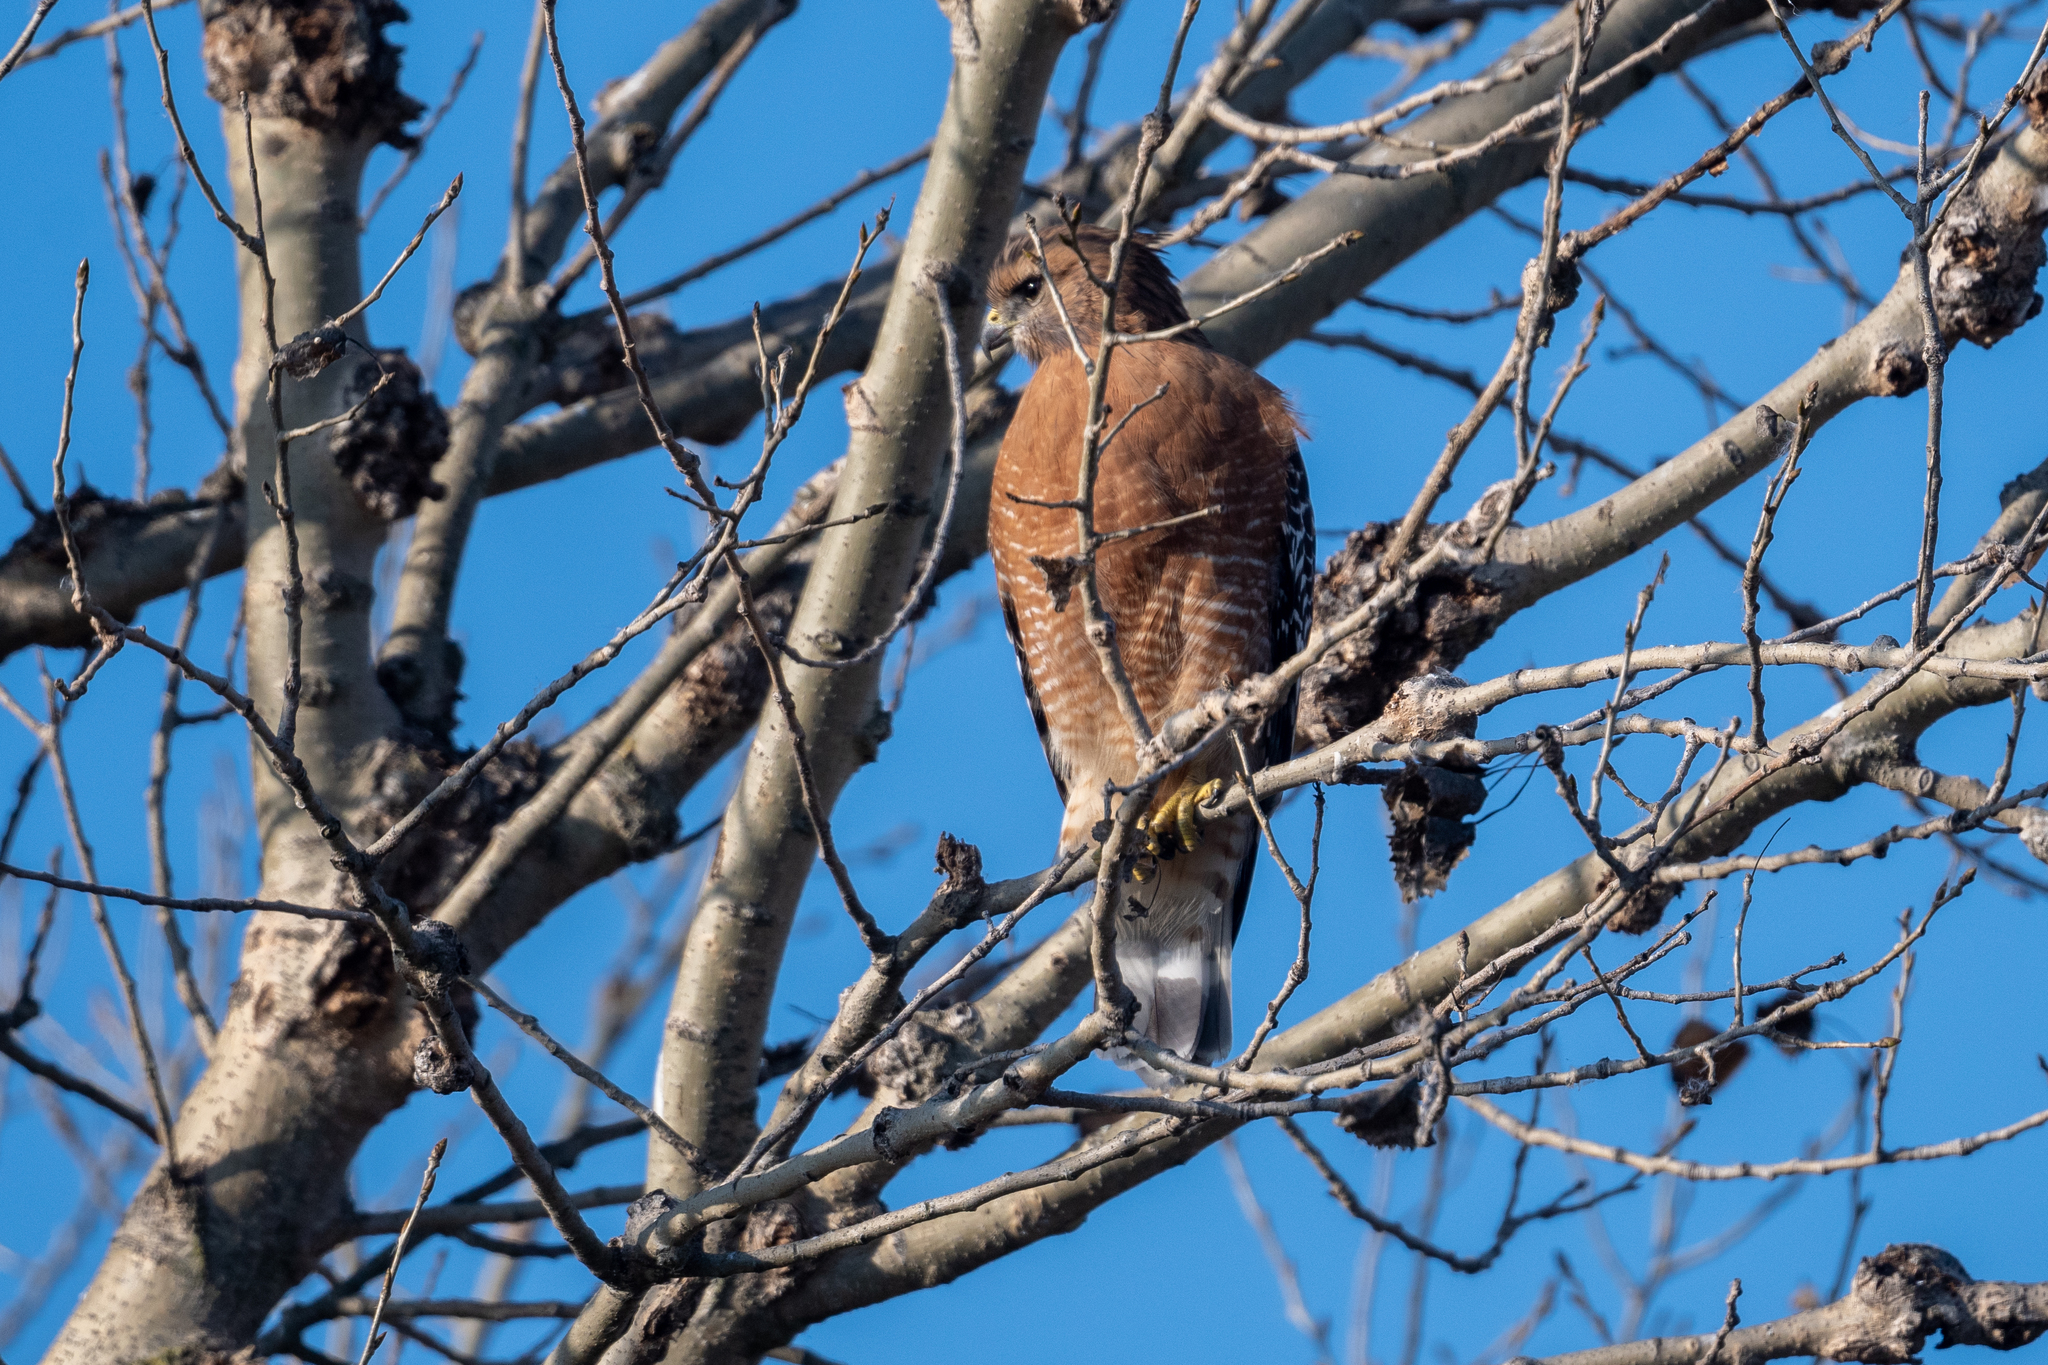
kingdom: Animalia
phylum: Chordata
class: Aves
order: Accipitriformes
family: Accipitridae
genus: Buteo
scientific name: Buteo lineatus
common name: Red-shouldered hawk
